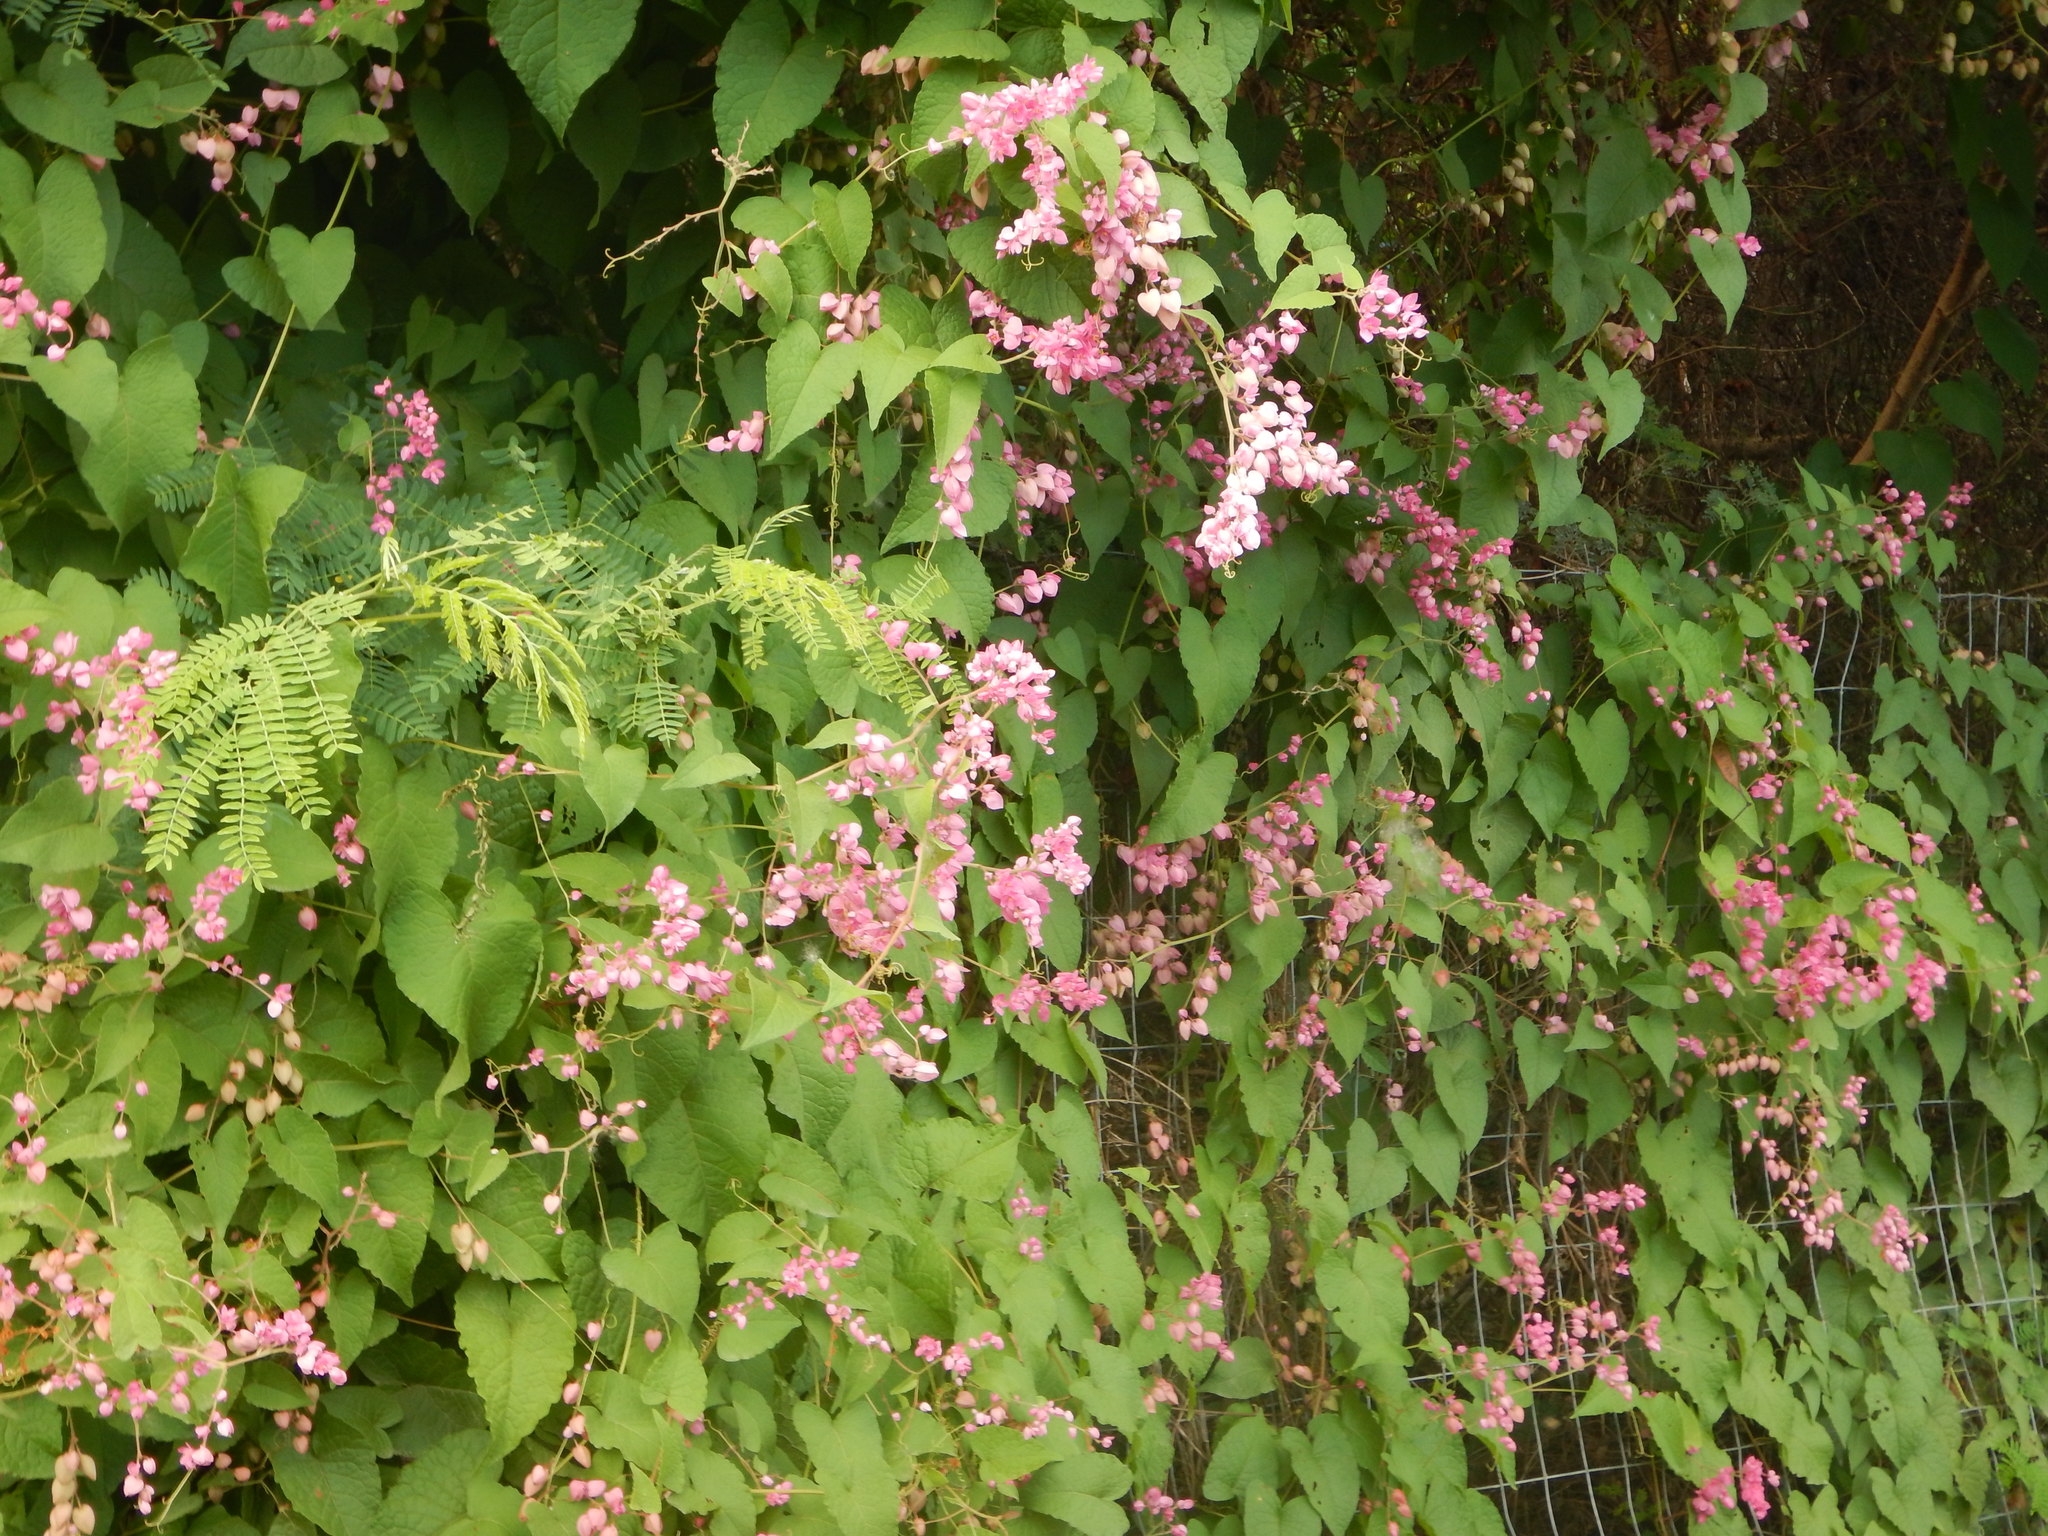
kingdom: Plantae
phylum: Tracheophyta
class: Magnoliopsida
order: Caryophyllales
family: Polygonaceae
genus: Antigonon
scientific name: Antigonon leptopus
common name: Coral vine
